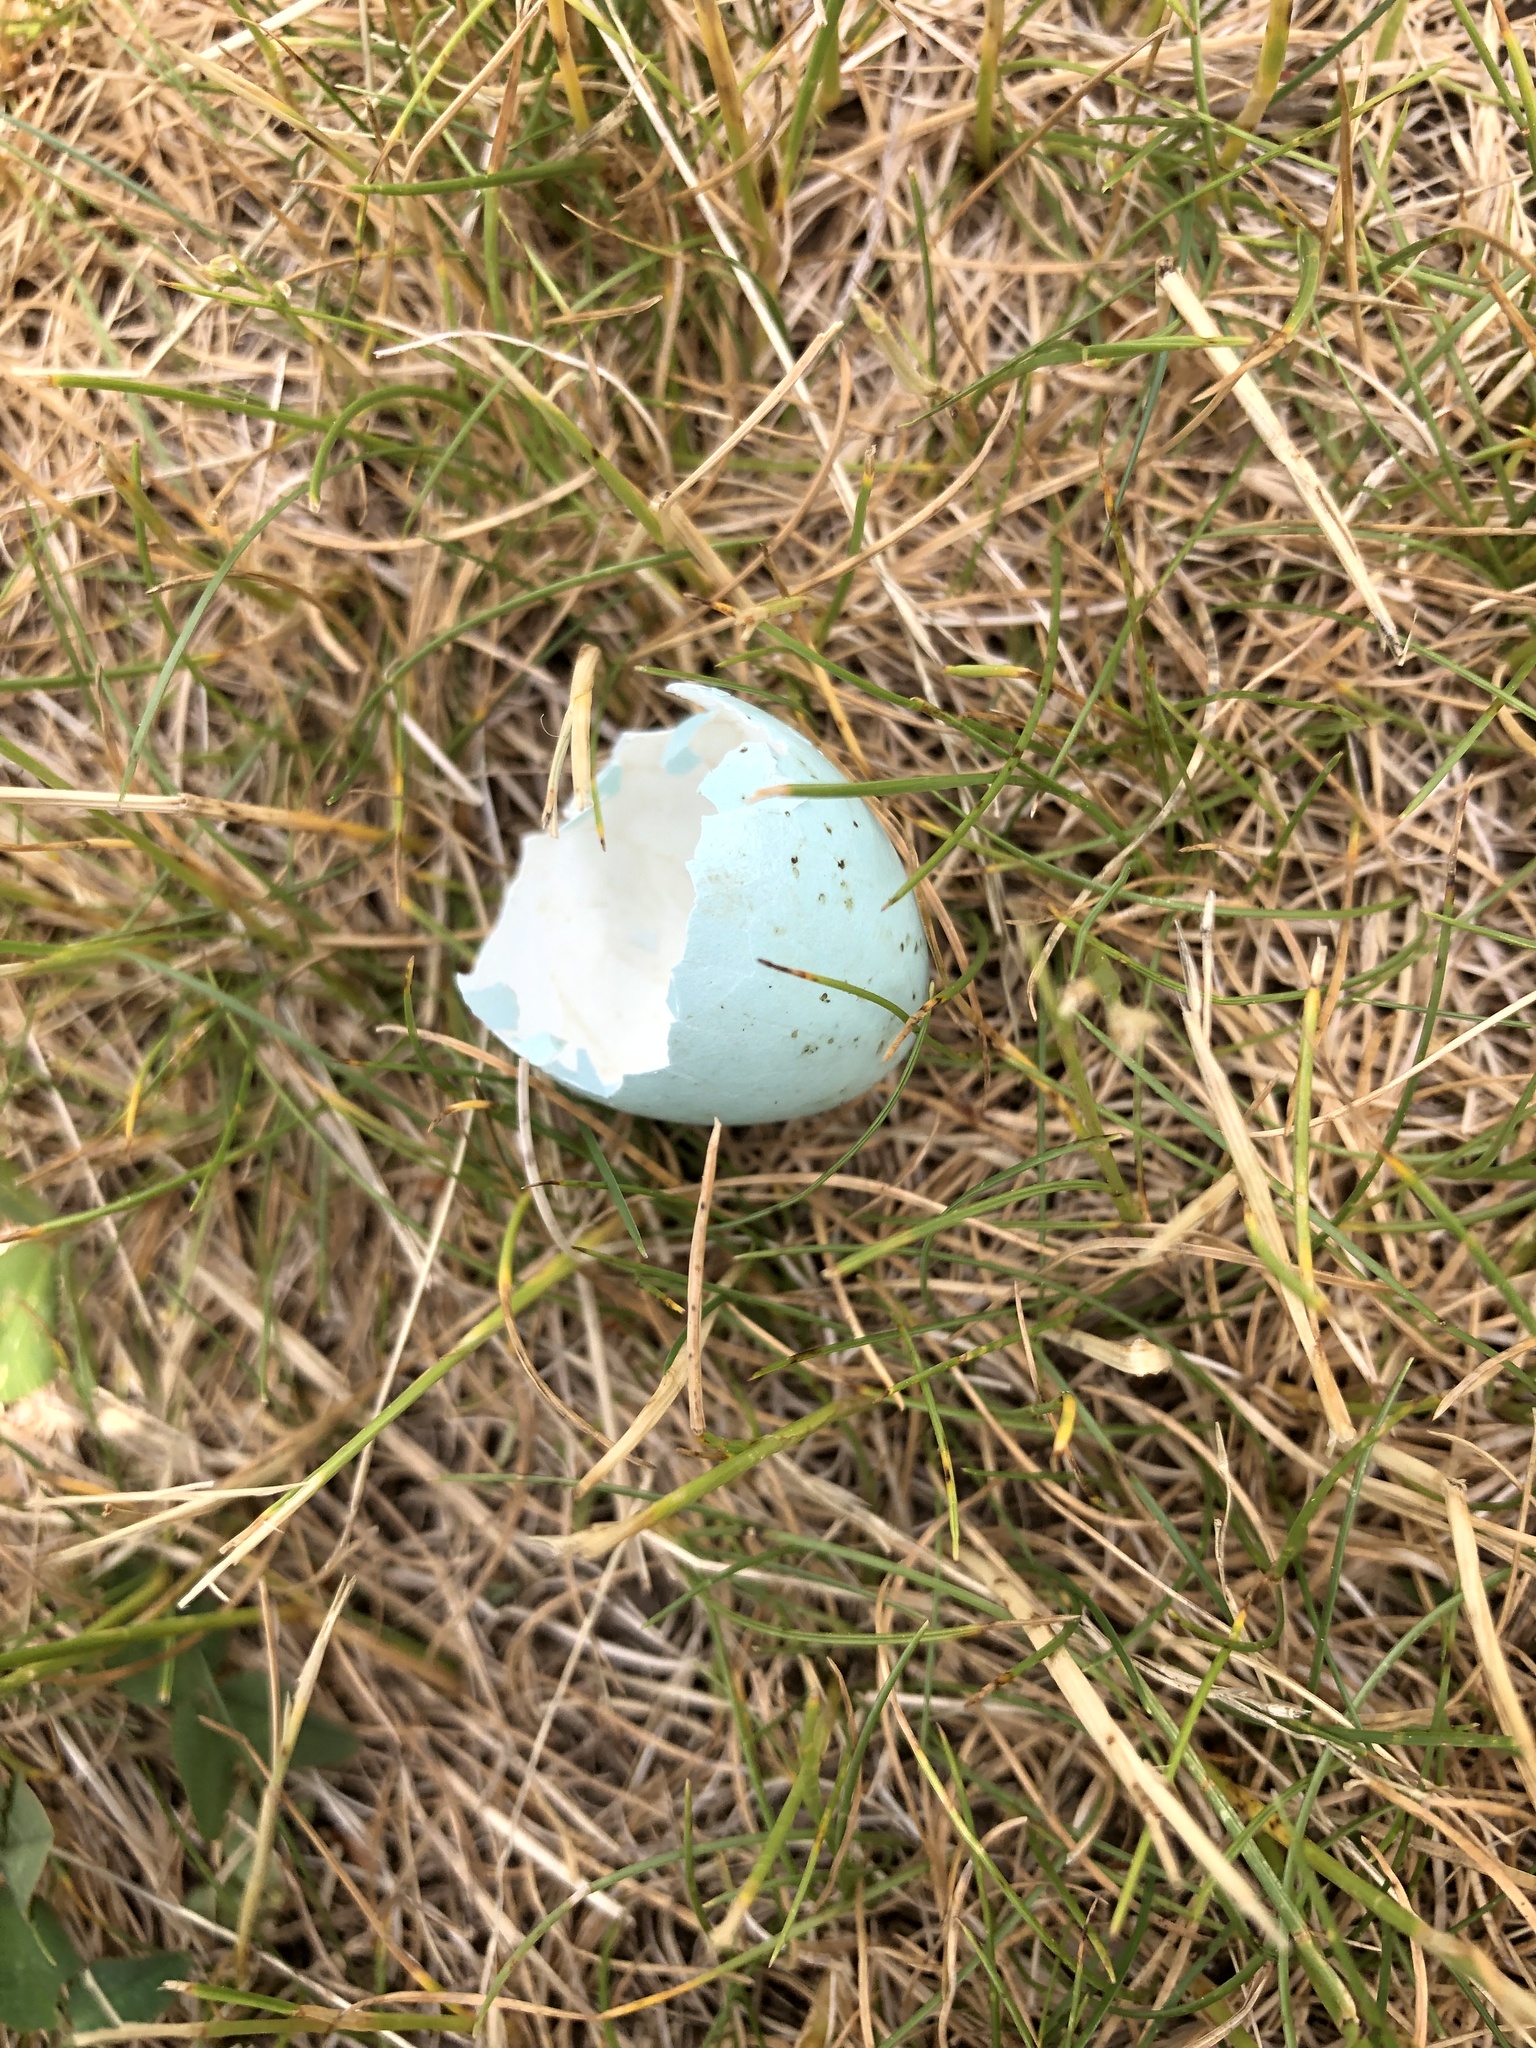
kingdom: Animalia
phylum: Chordata
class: Aves
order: Passeriformes
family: Turdidae
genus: Turdus
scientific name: Turdus migratorius
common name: American robin
